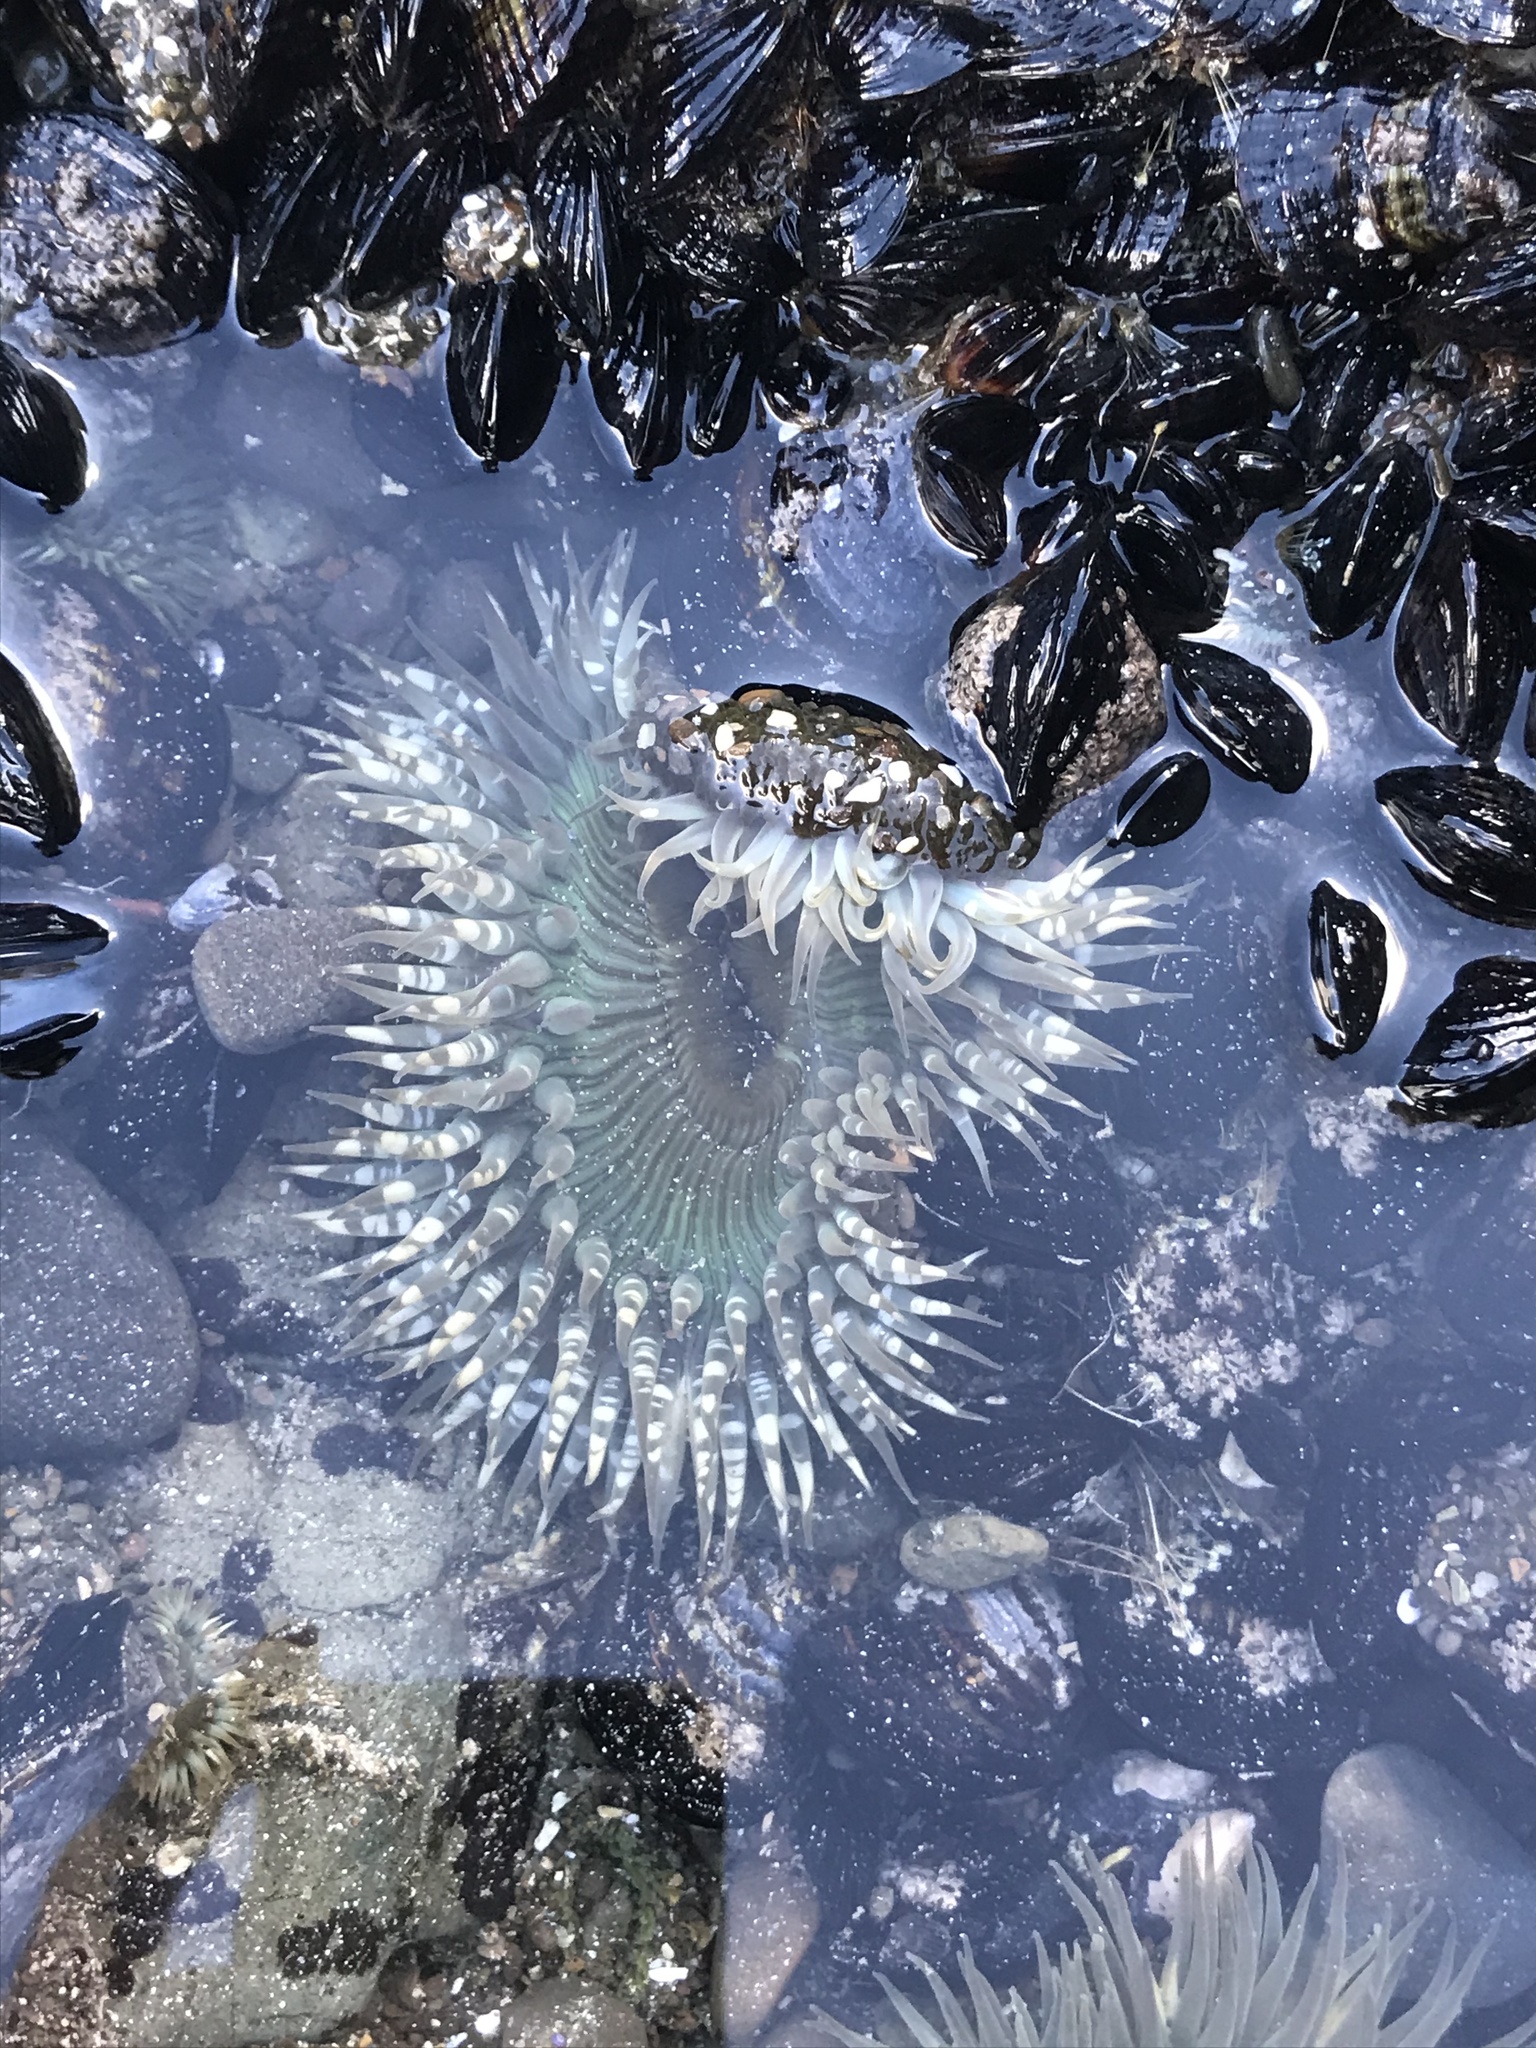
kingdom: Animalia
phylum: Cnidaria
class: Anthozoa
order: Actiniaria
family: Actiniidae
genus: Anthopleura
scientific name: Anthopleura sola
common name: Sun anemone
